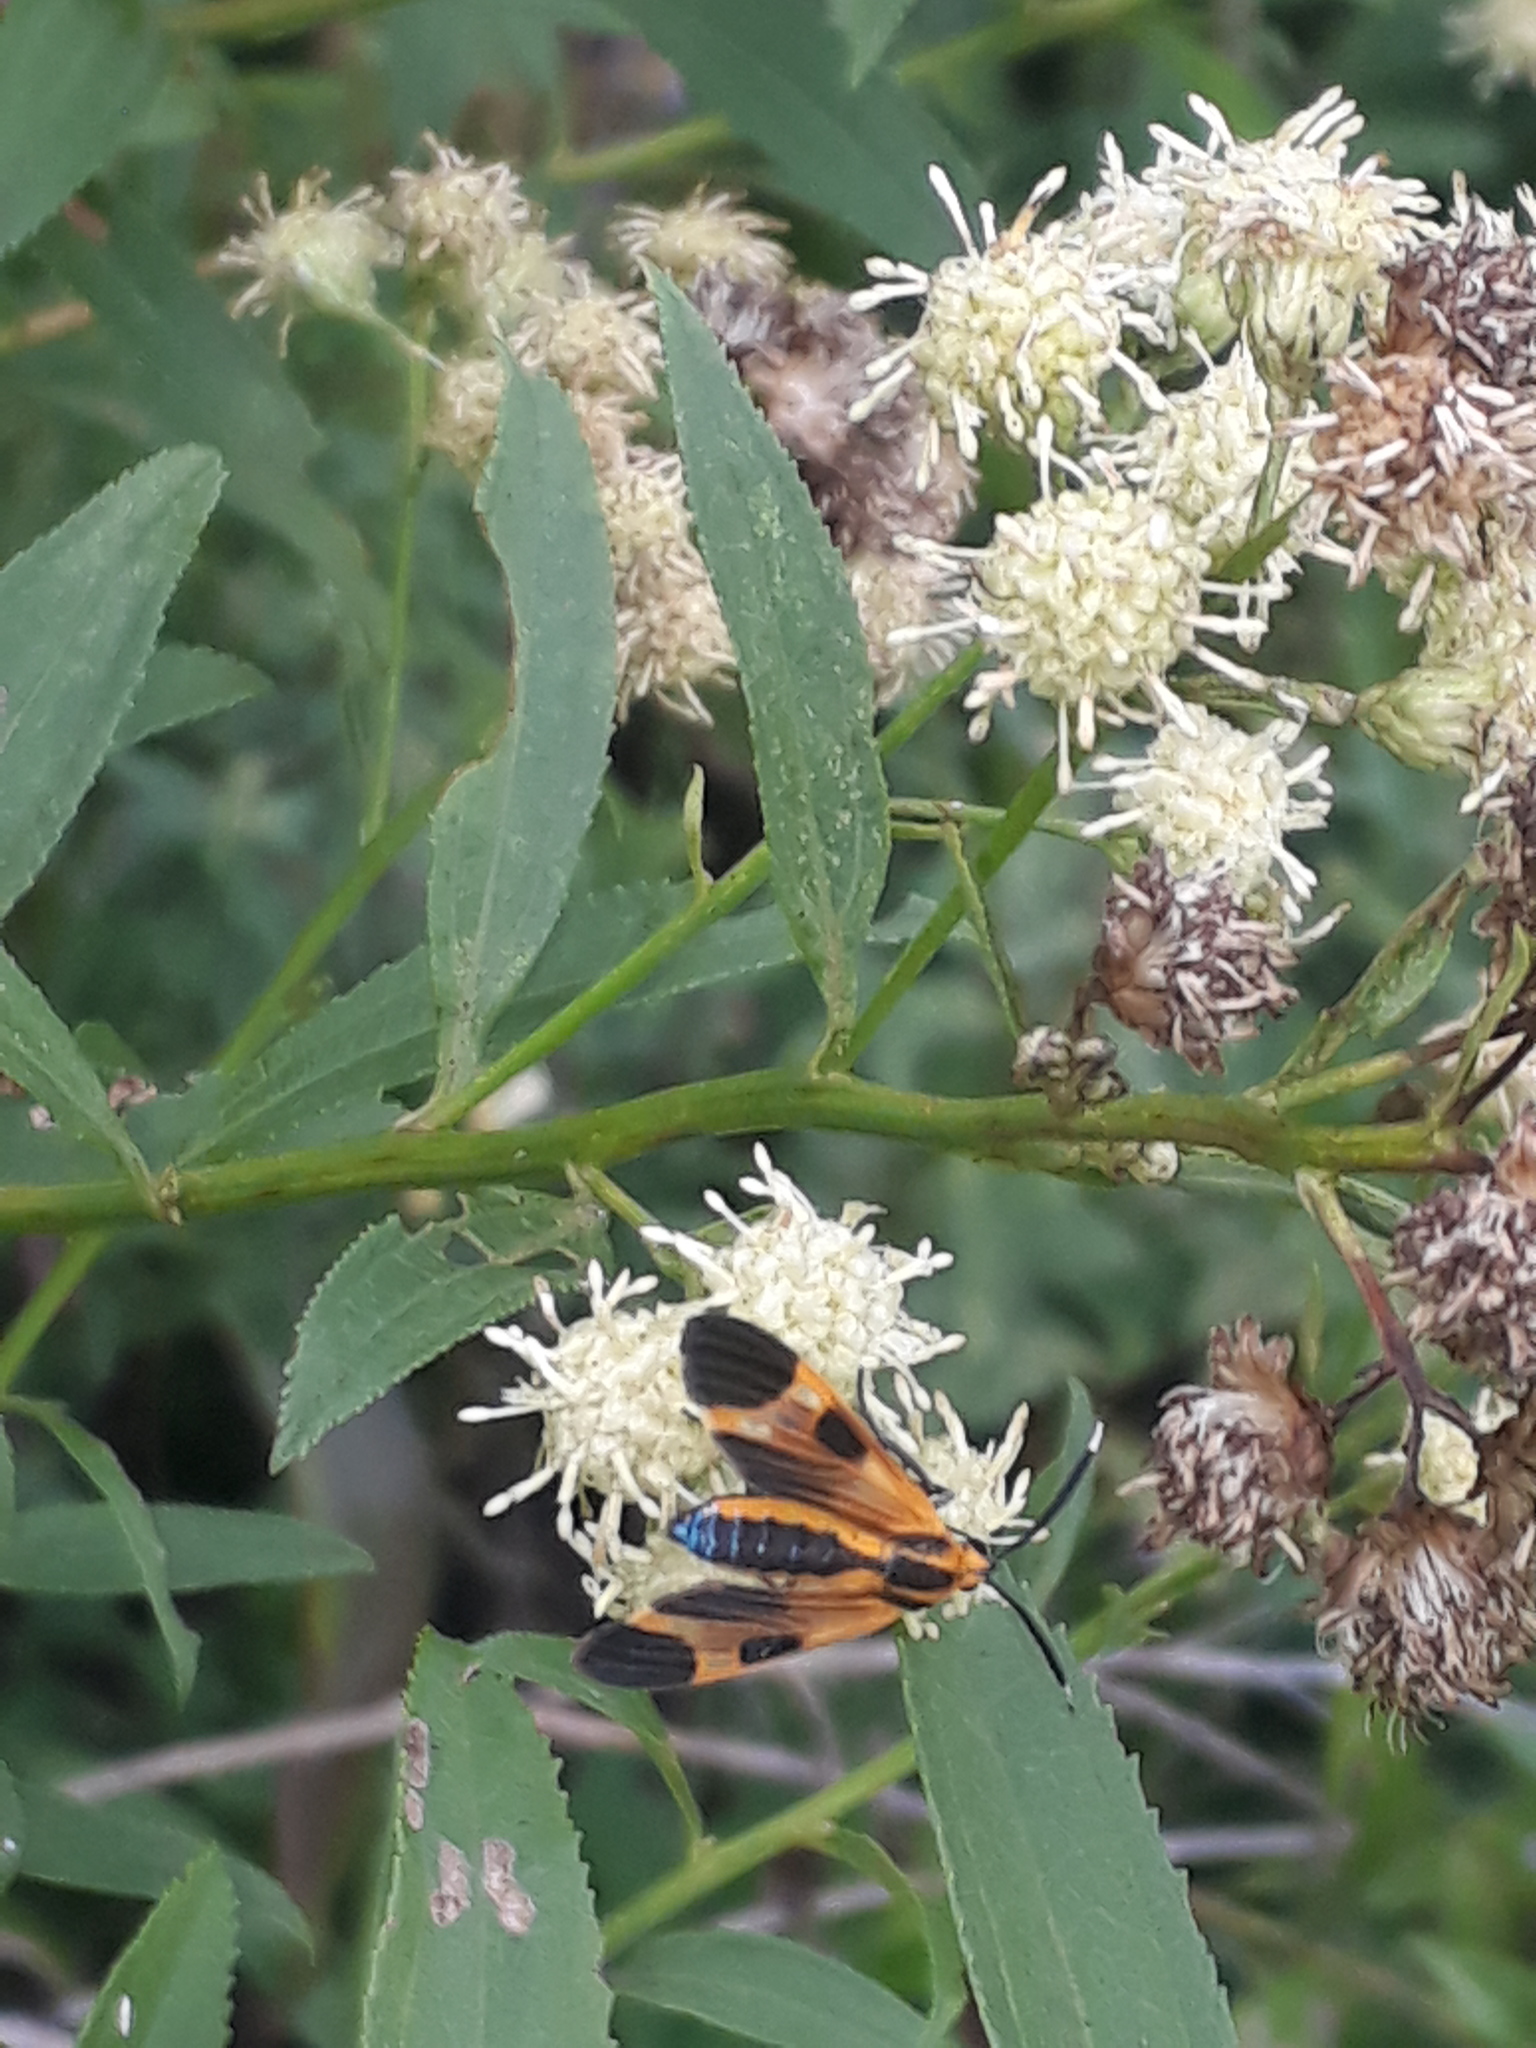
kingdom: Animalia
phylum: Arthropoda
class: Insecta
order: Lepidoptera
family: Erebidae
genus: Dycladia
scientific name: Dycladia lucetius
